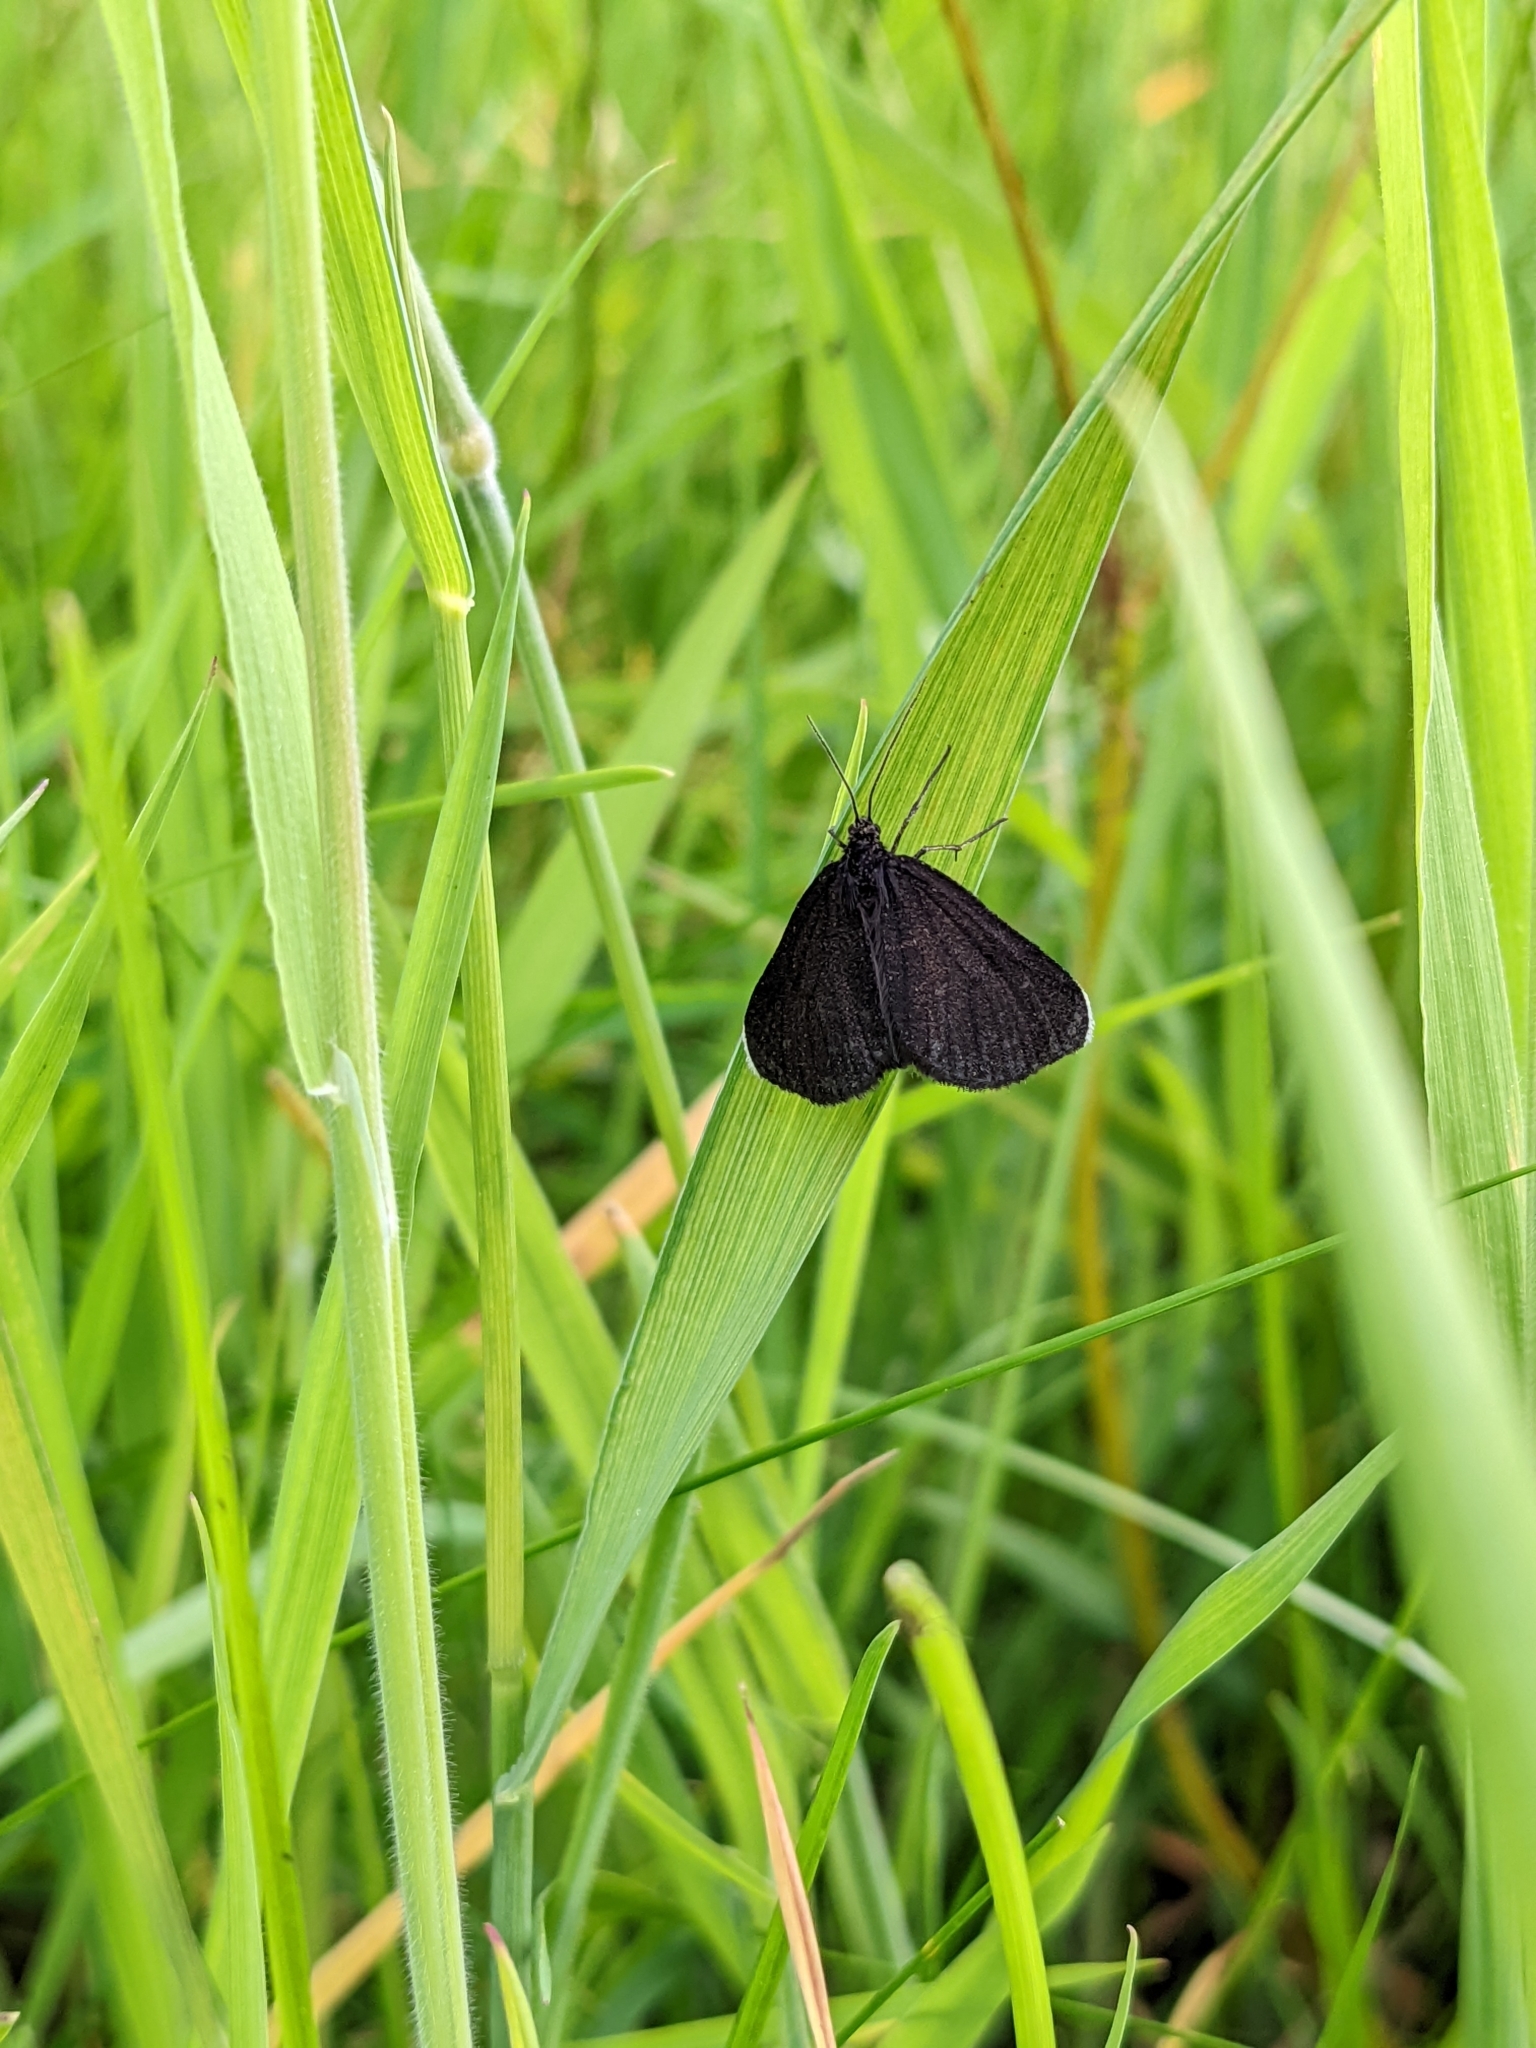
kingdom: Animalia
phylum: Arthropoda
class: Insecta
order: Lepidoptera
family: Geometridae
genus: Odezia
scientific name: Odezia atrata
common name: Chimney sweeper
